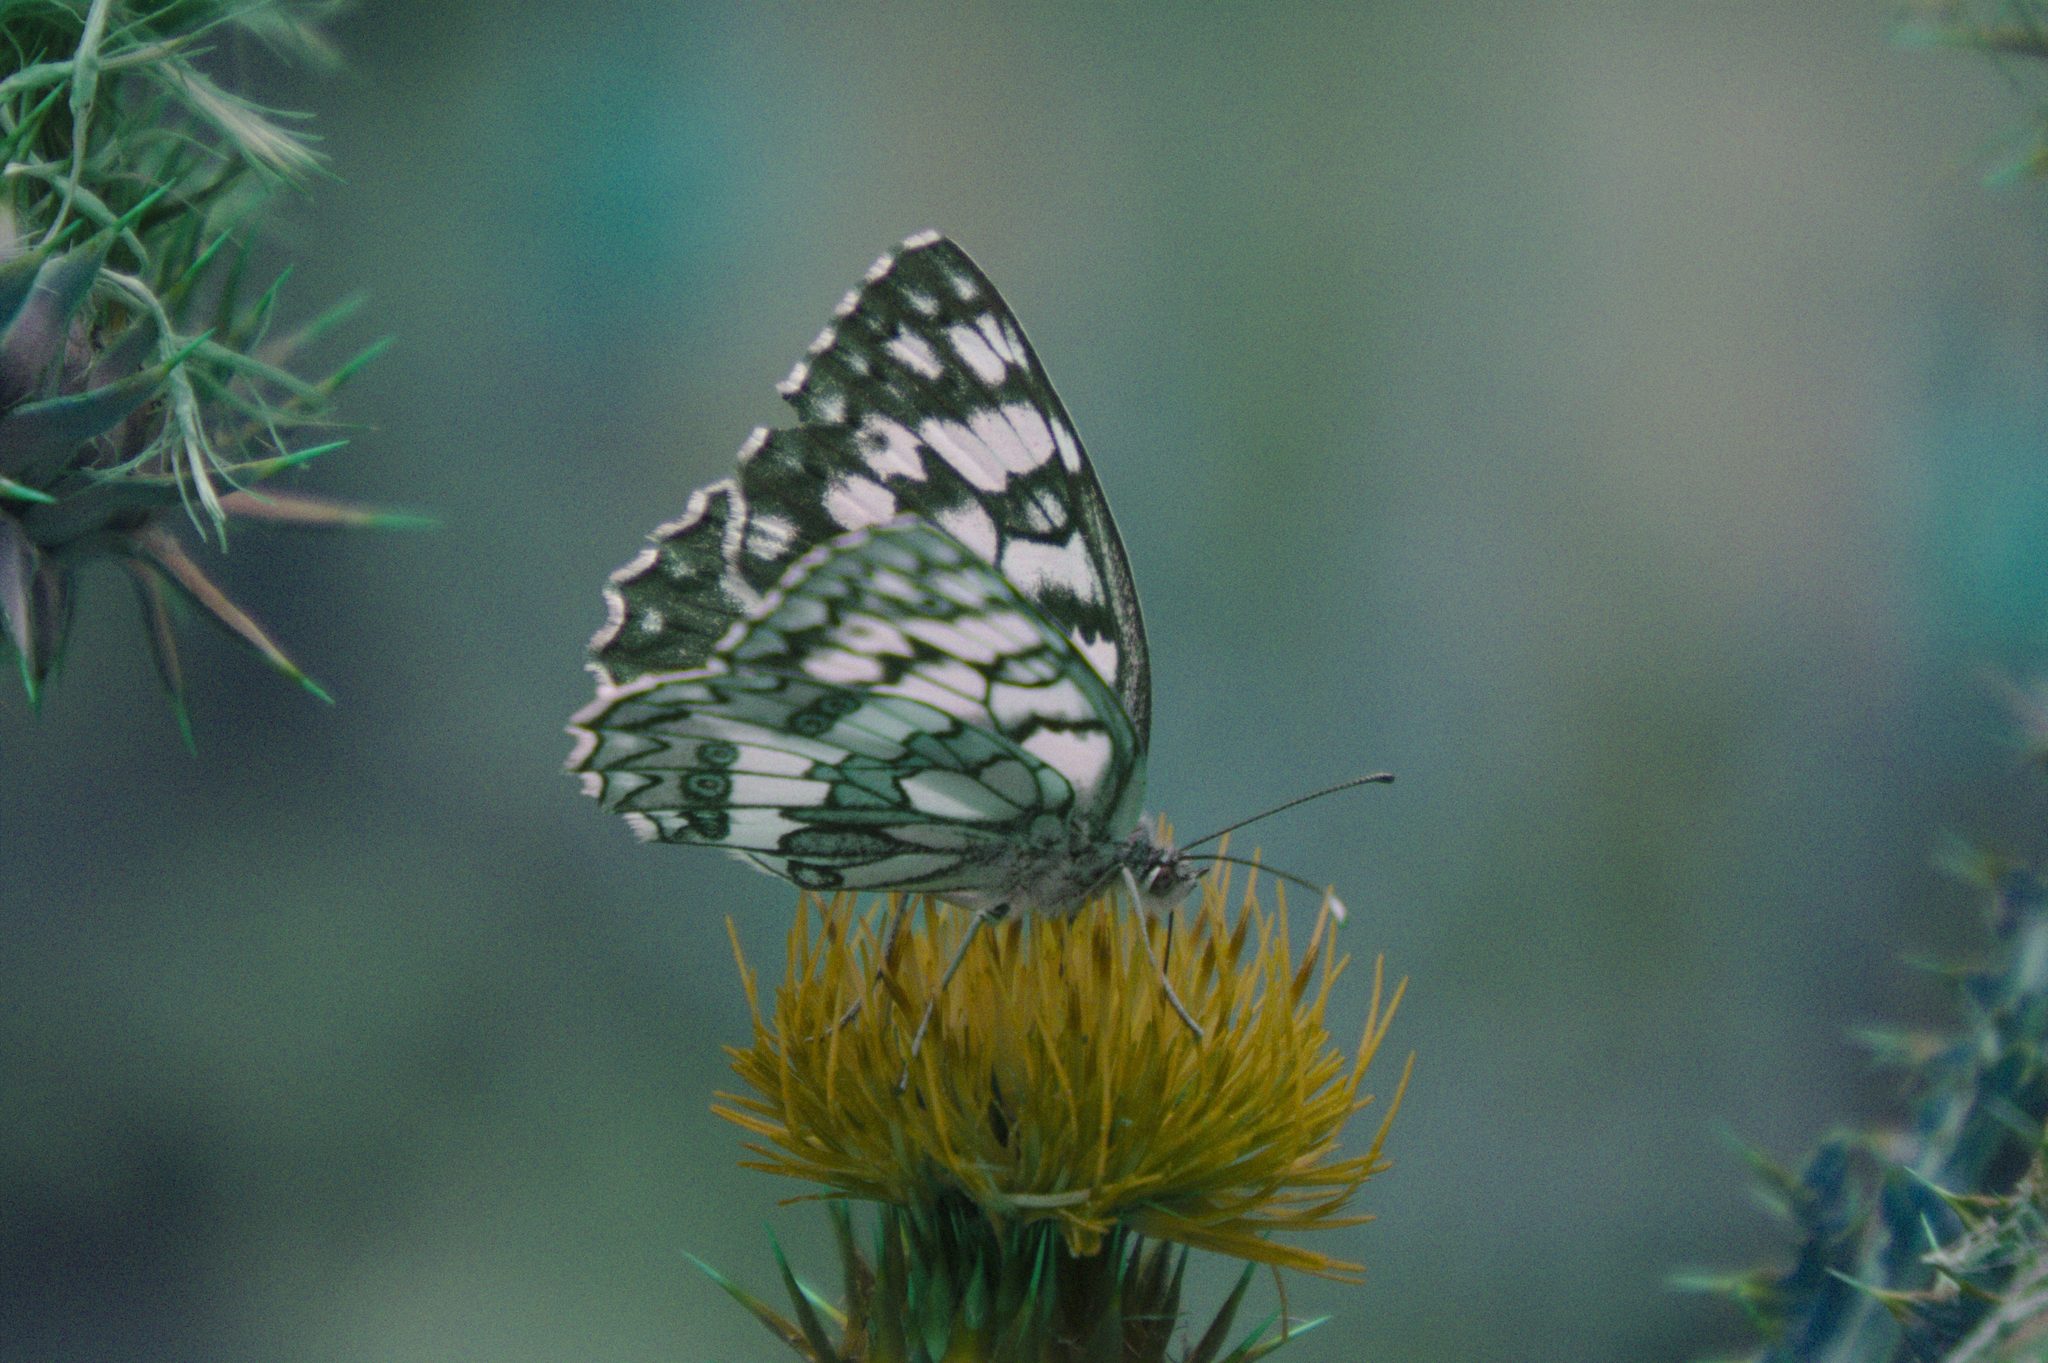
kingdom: Animalia
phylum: Arthropoda
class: Insecta
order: Lepidoptera
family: Nymphalidae
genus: Melanargia
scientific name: Melanargia japygia
